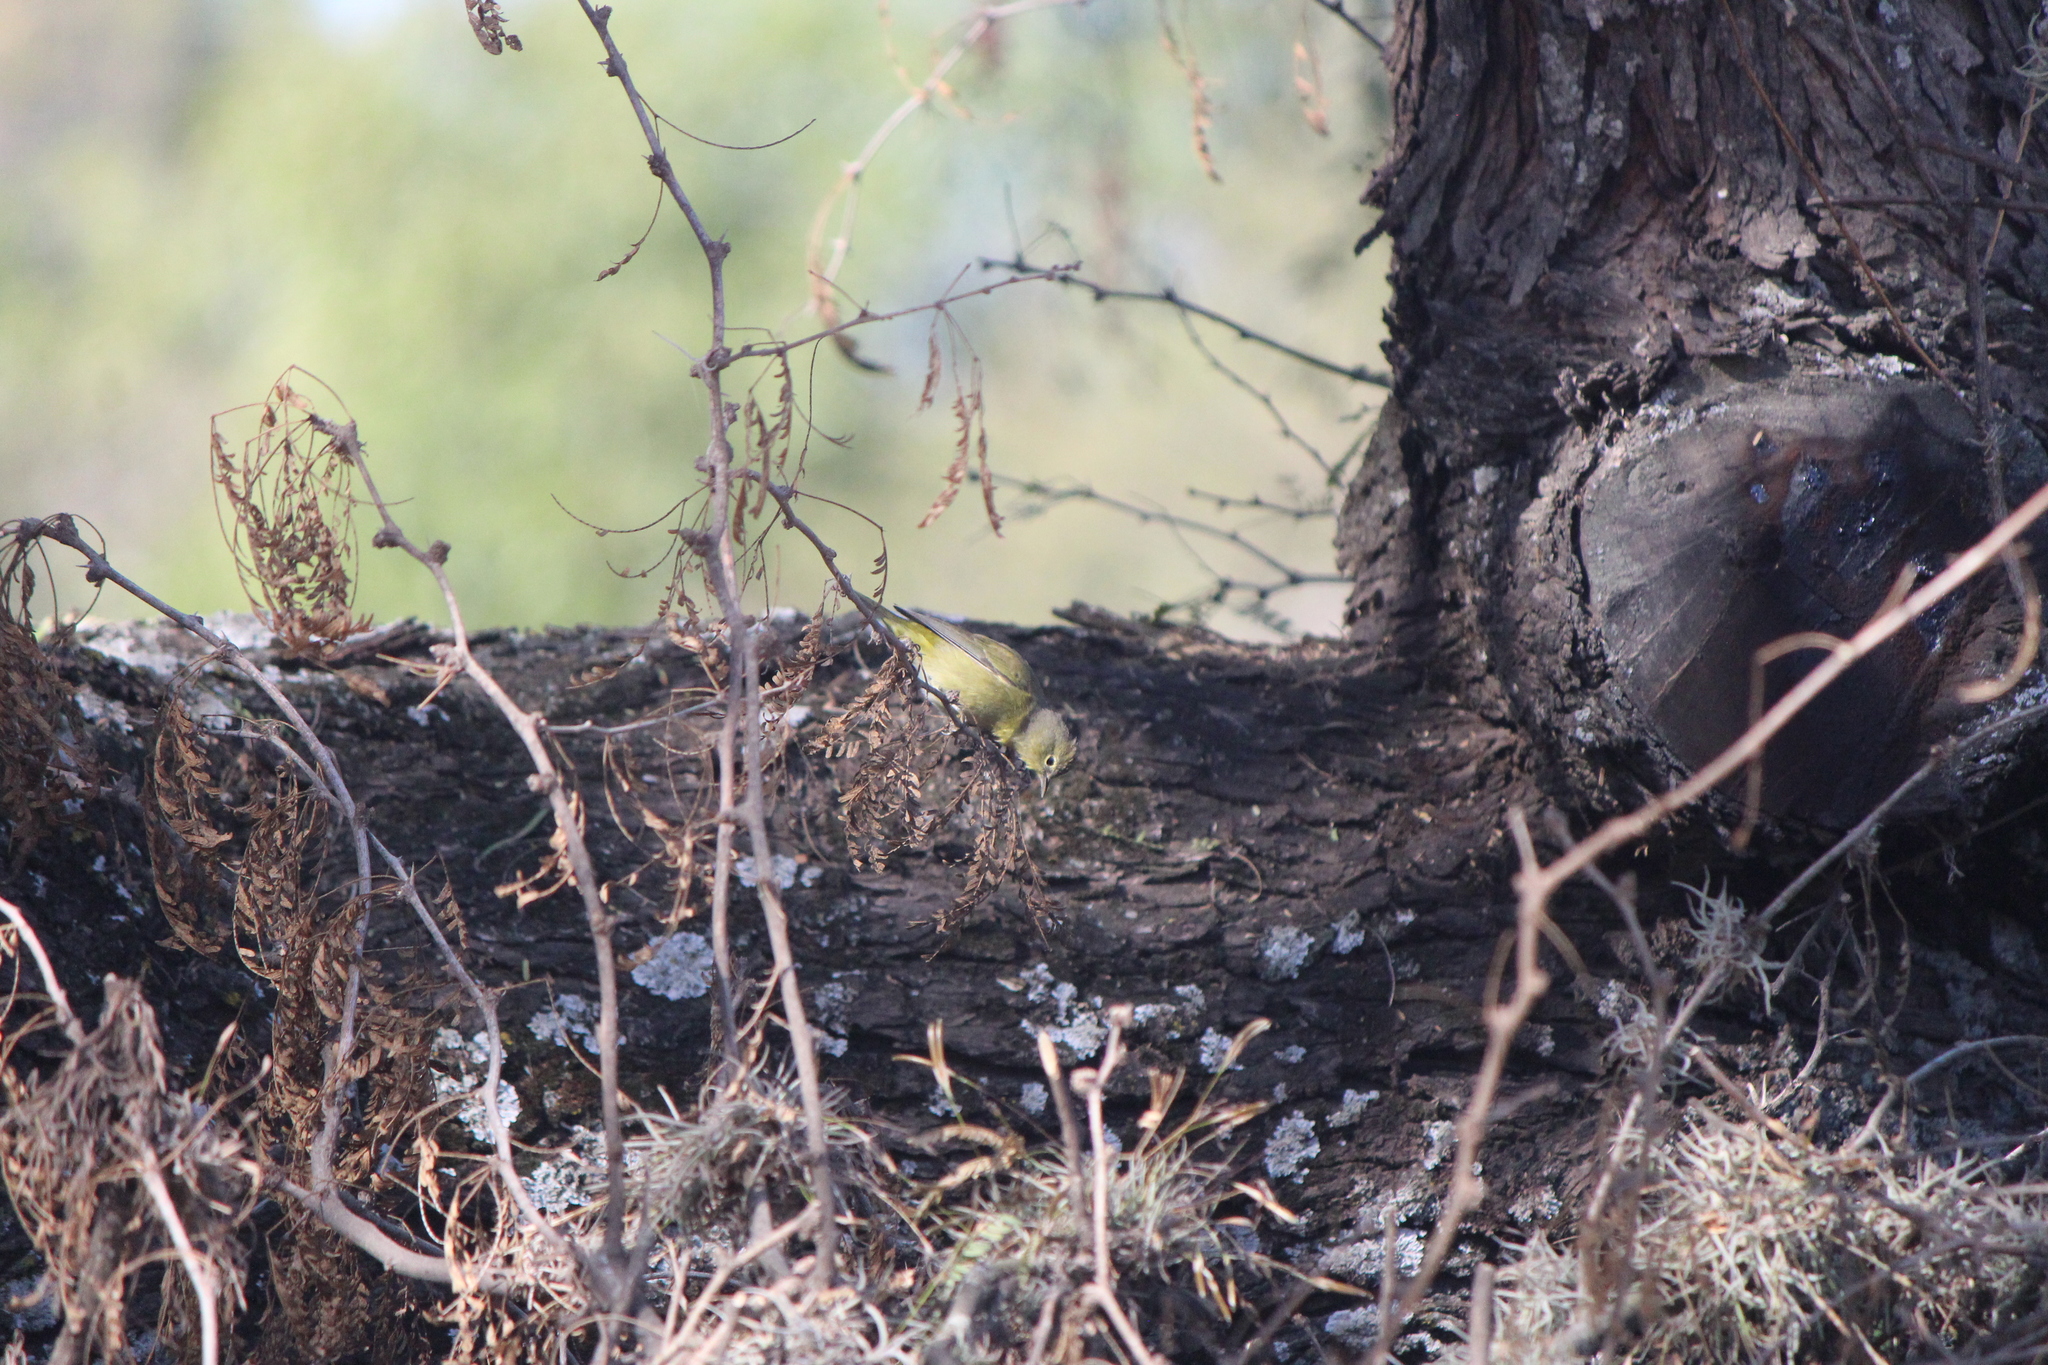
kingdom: Animalia
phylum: Chordata
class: Aves
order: Passeriformes
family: Parulidae
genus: Leiothlypis
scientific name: Leiothlypis celata
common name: Orange-crowned warbler
